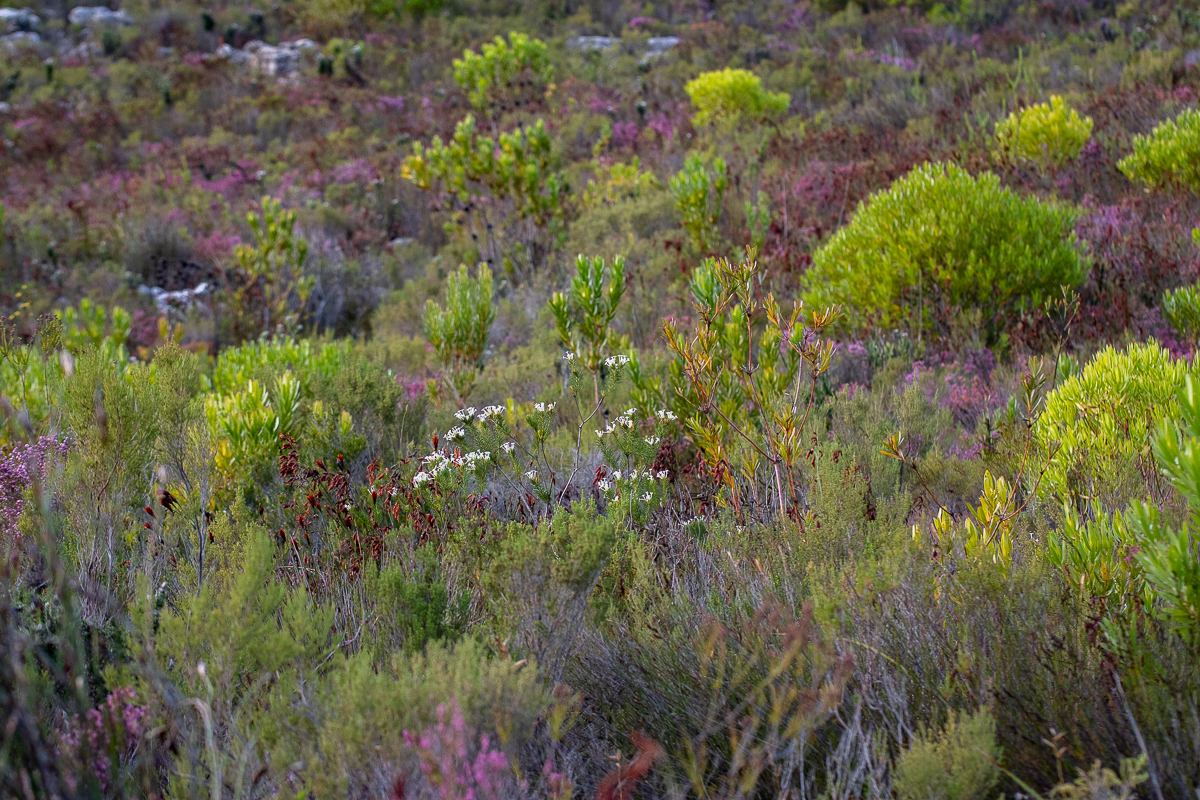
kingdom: Plantae
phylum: Tracheophyta
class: Magnoliopsida
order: Malvales
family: Thymelaeaceae
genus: Gnidia
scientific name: Gnidia pinifolia
